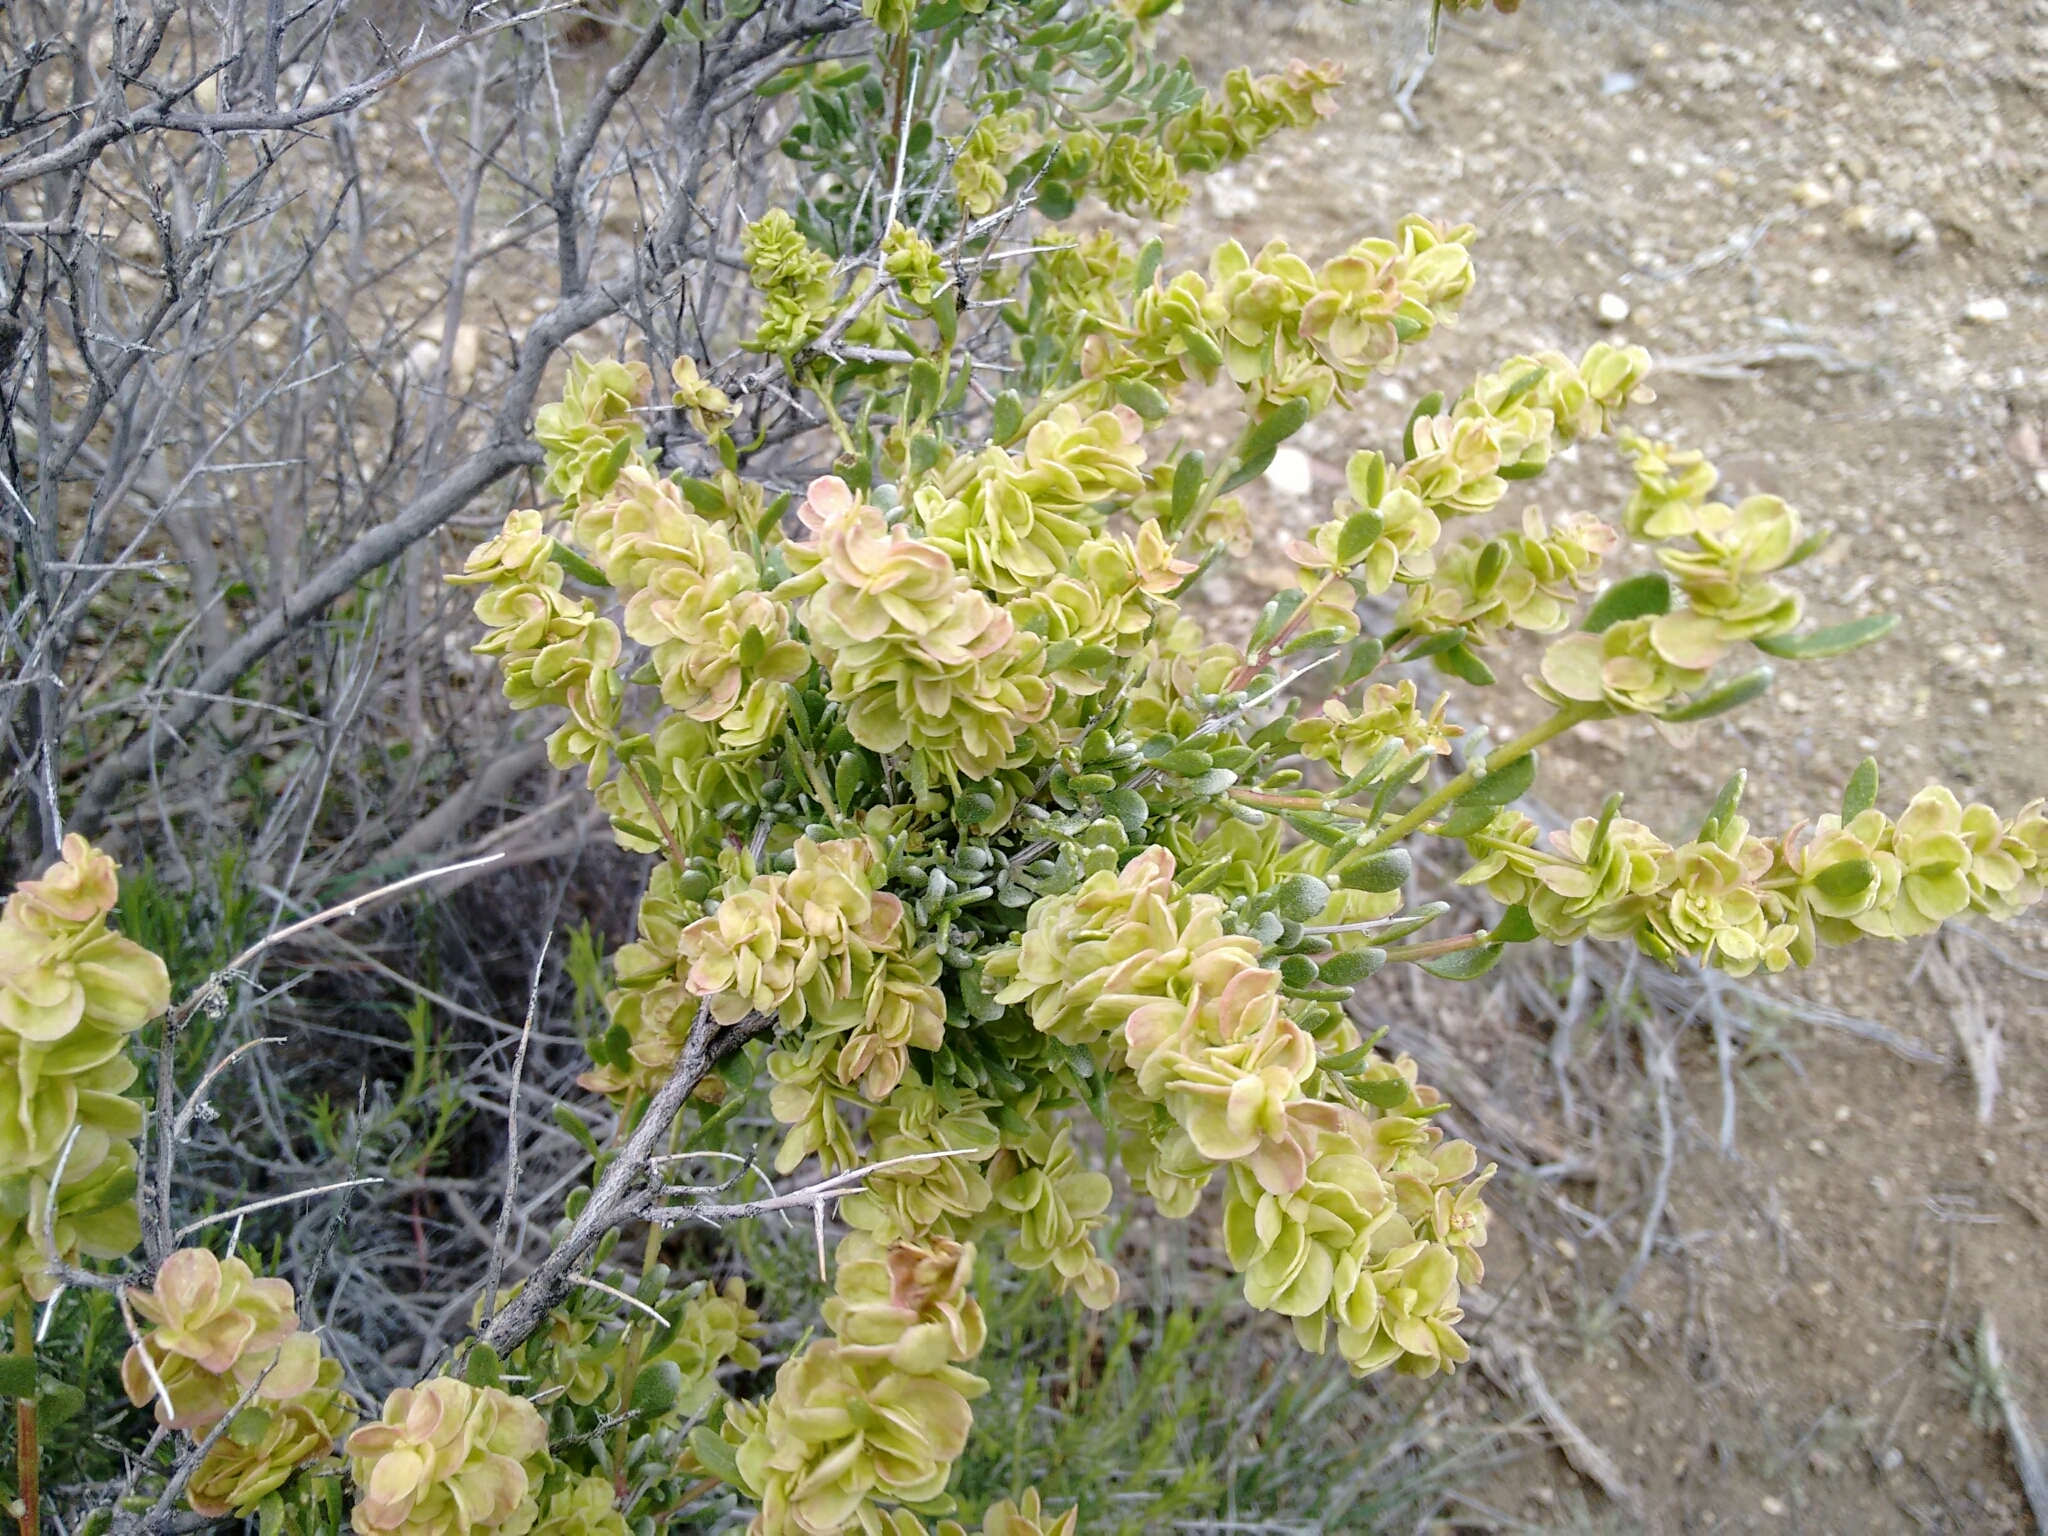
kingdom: Plantae
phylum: Tracheophyta
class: Magnoliopsida
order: Caryophyllales
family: Amaranthaceae
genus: Grayia
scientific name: Grayia spinosa
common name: Spiny hopsage
